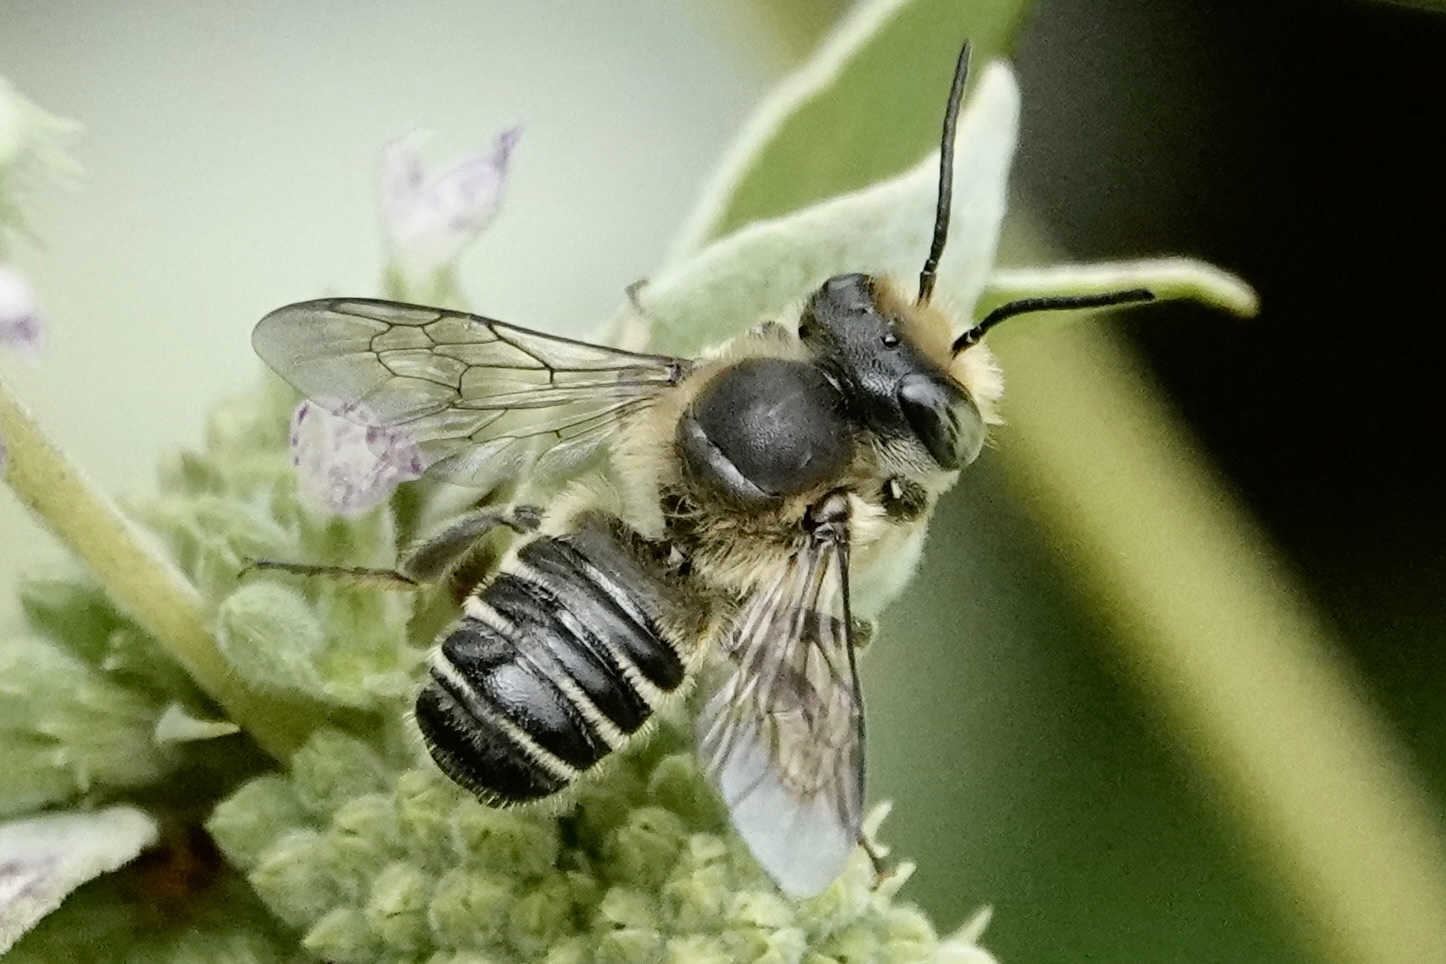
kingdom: Animalia
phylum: Arthropoda
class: Insecta
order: Hymenoptera
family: Megachilidae
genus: Megachile
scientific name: Megachile mendica
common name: Flat-tailed leafcutter
